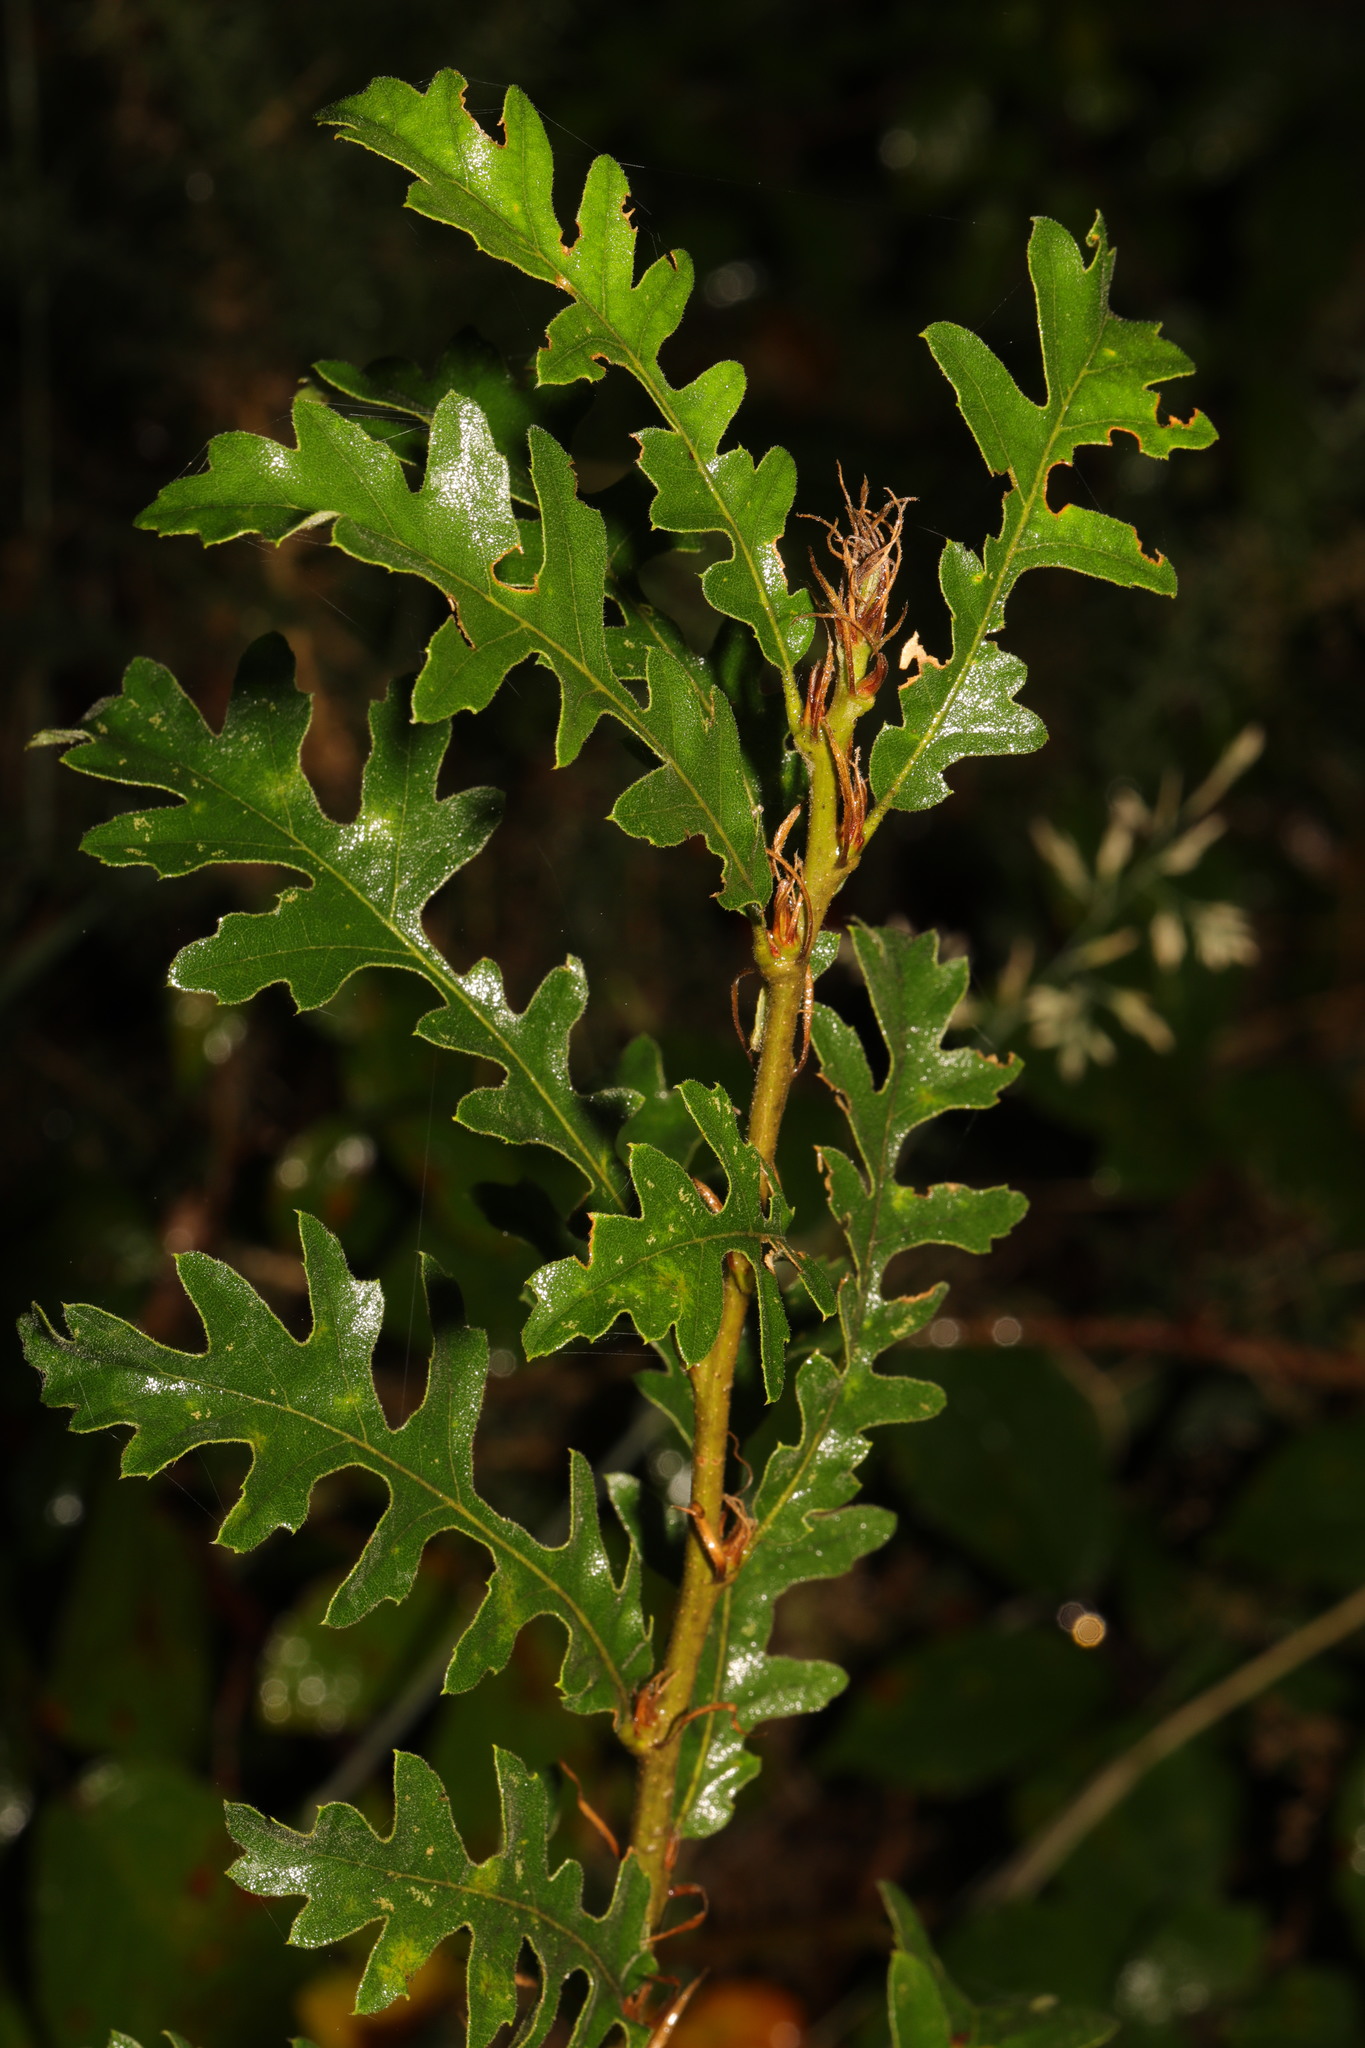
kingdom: Plantae
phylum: Tracheophyta
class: Magnoliopsida
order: Fagales
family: Fagaceae
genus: Quercus
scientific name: Quercus cerris
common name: Turkey oak
